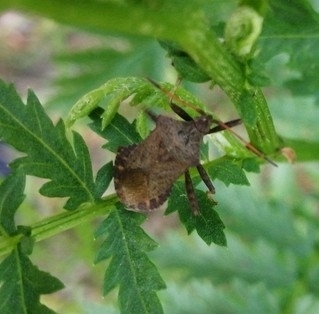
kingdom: Animalia
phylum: Arthropoda
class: Insecta
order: Hemiptera
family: Coreidae
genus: Coreus
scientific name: Coreus marginatus
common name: Dock bug
